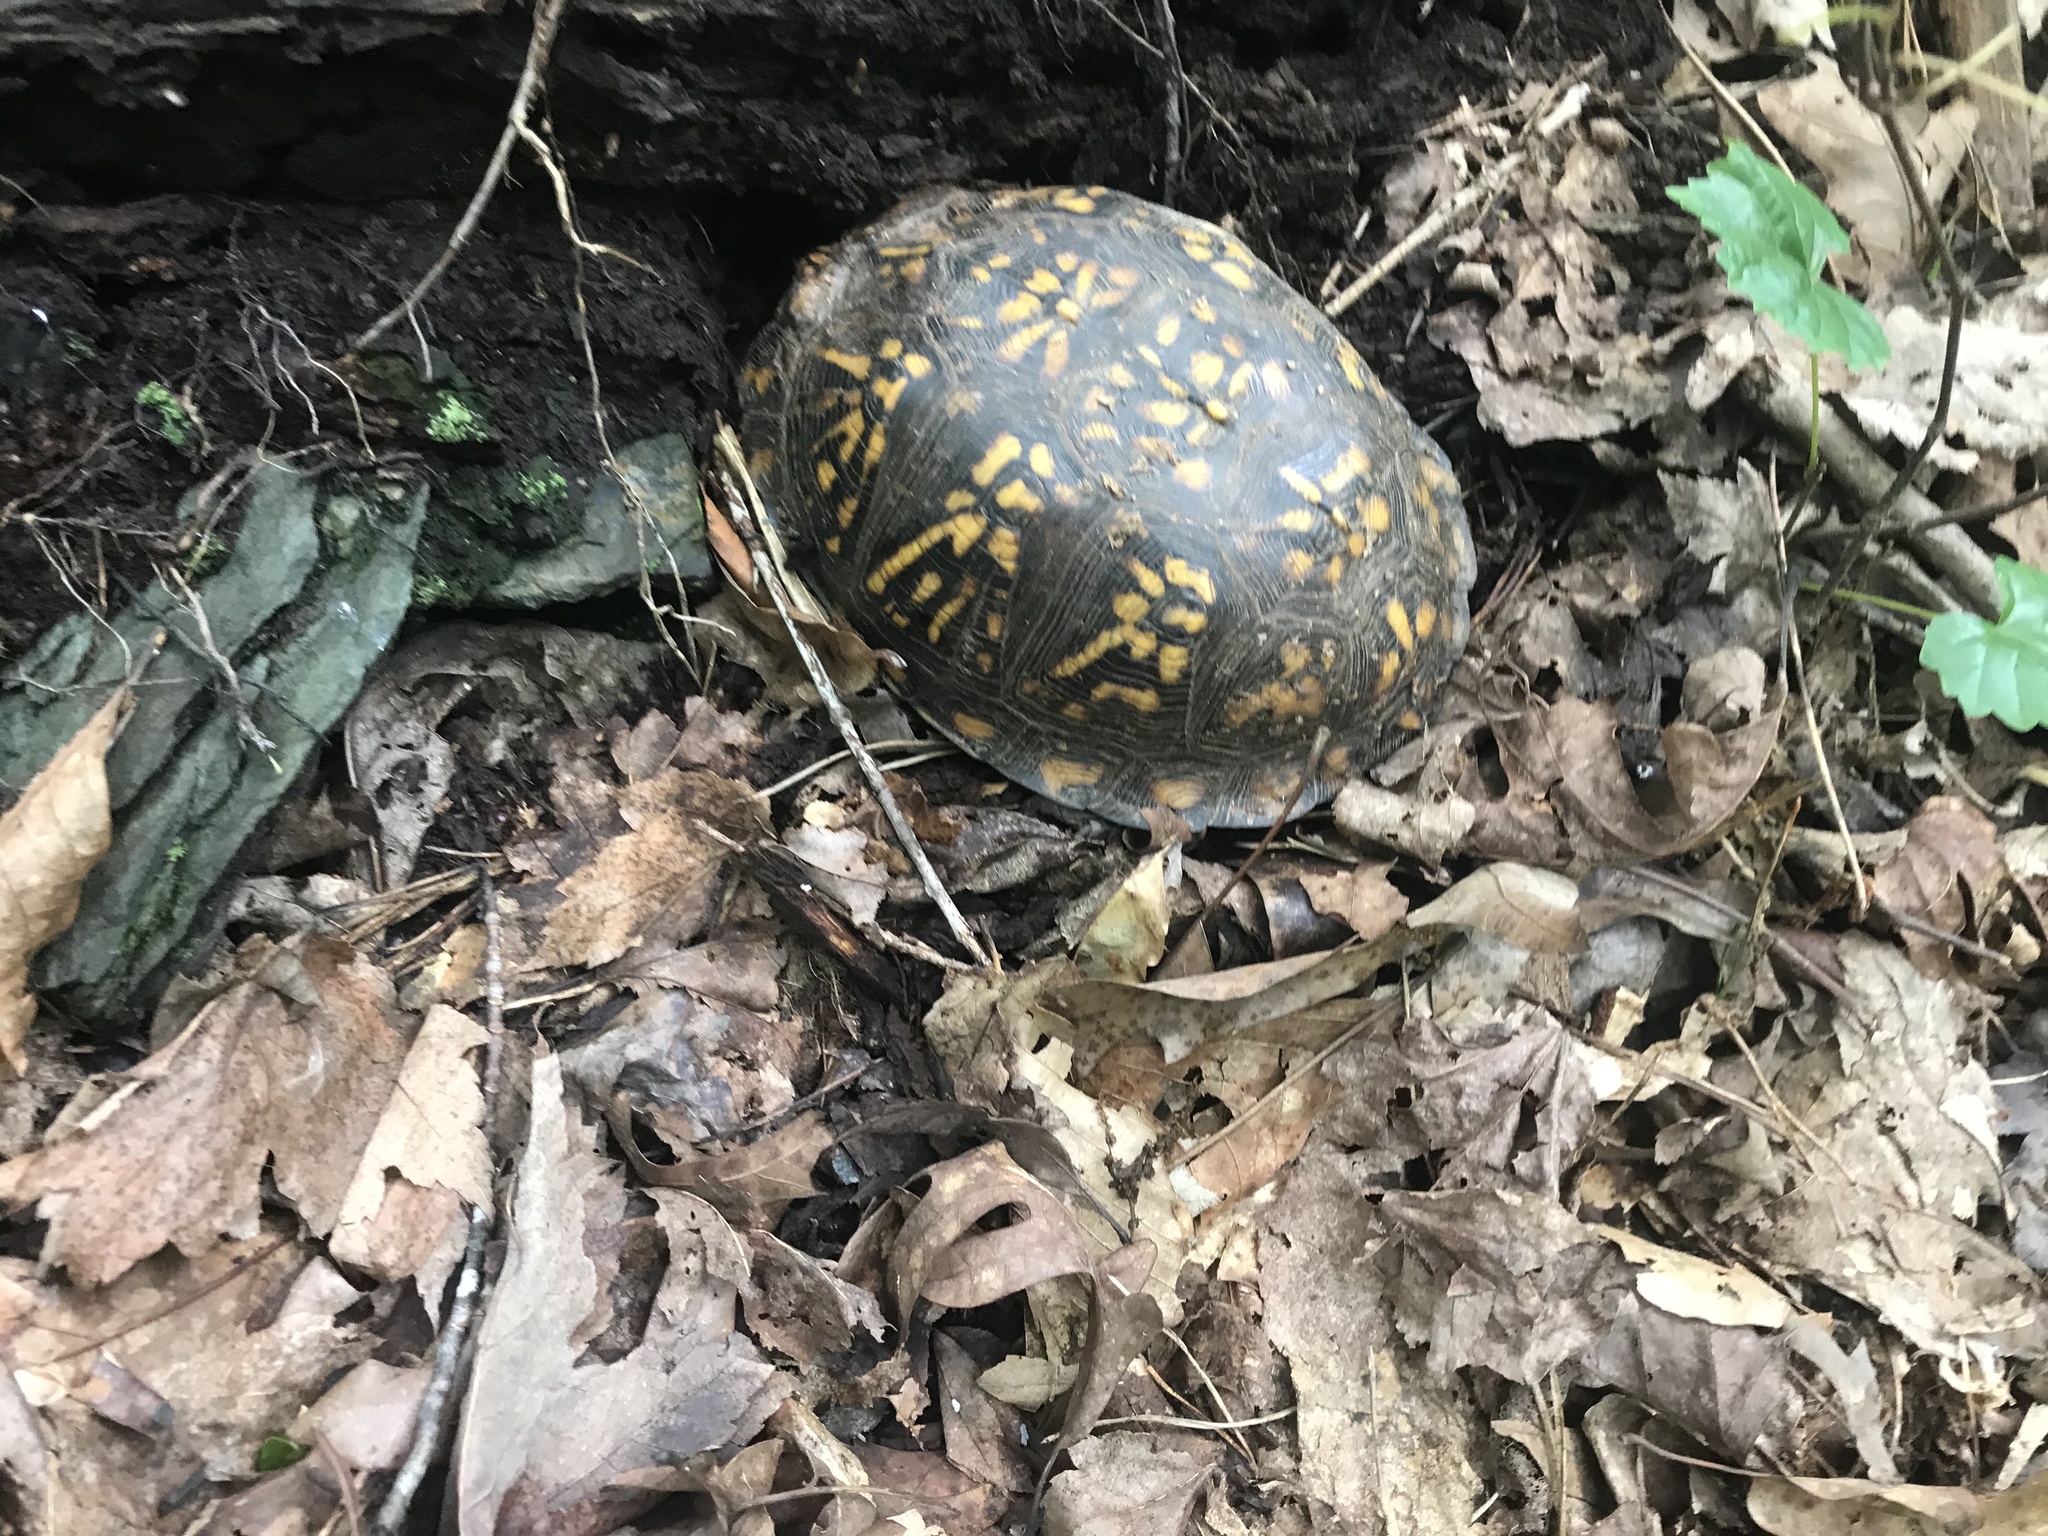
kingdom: Animalia
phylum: Chordata
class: Testudines
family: Emydidae
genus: Terrapene
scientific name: Terrapene carolina
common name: Common box turtle
